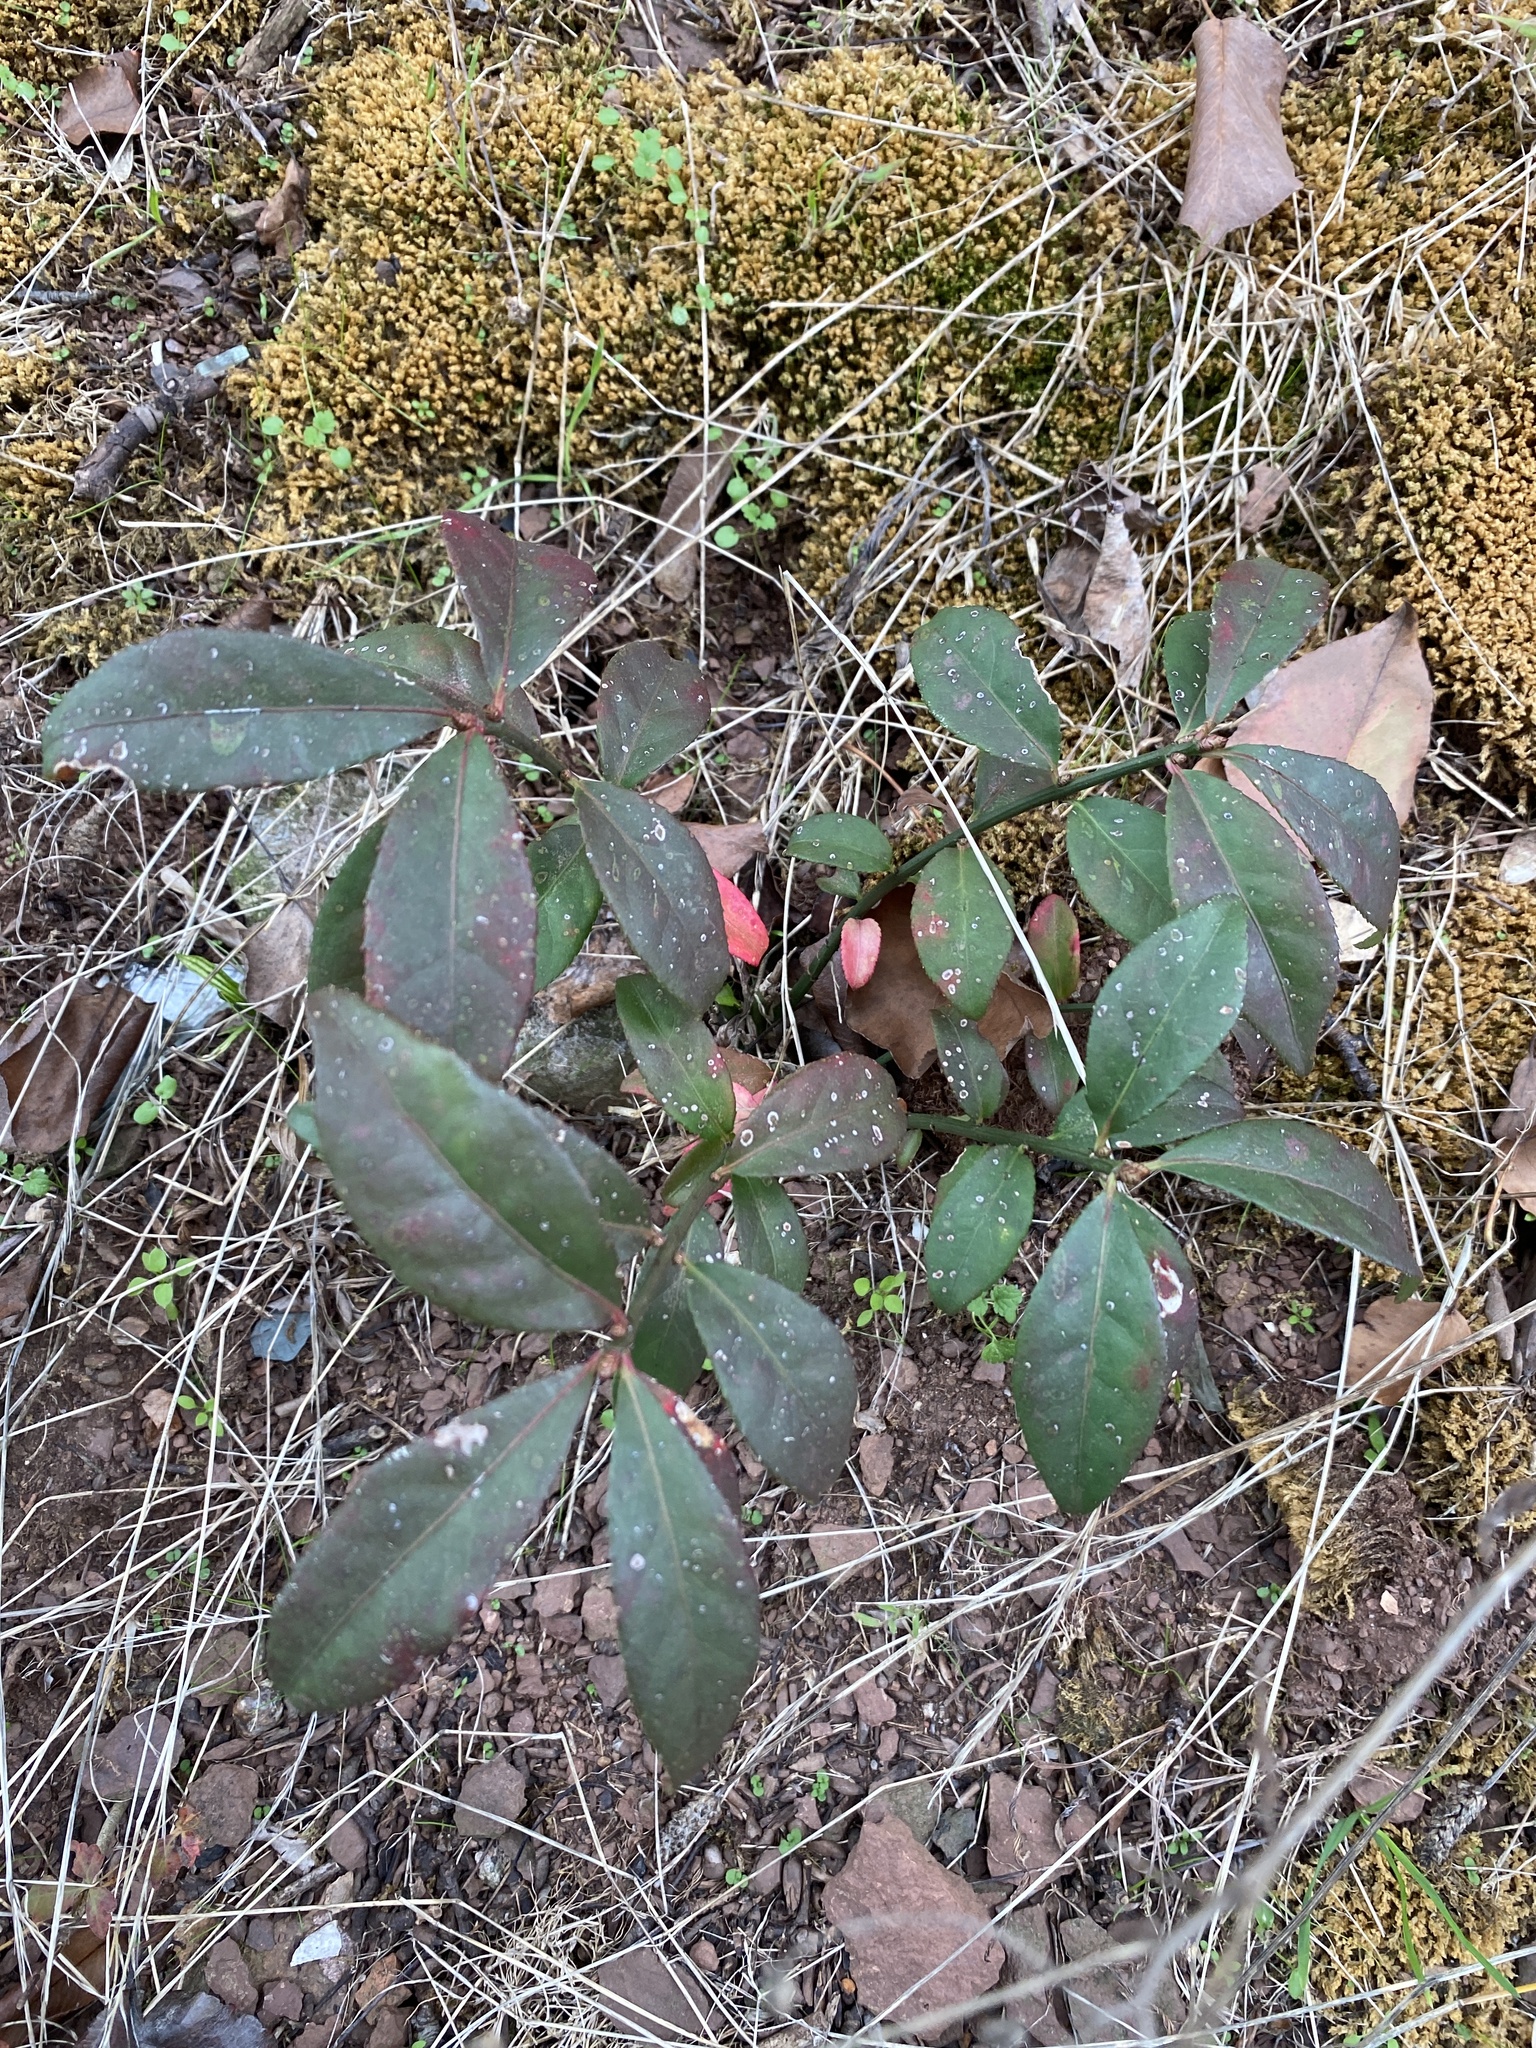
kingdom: Plantae
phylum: Tracheophyta
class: Magnoliopsida
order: Celastrales
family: Celastraceae
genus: Euonymus
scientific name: Euonymus alatus
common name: Winged euonymus
